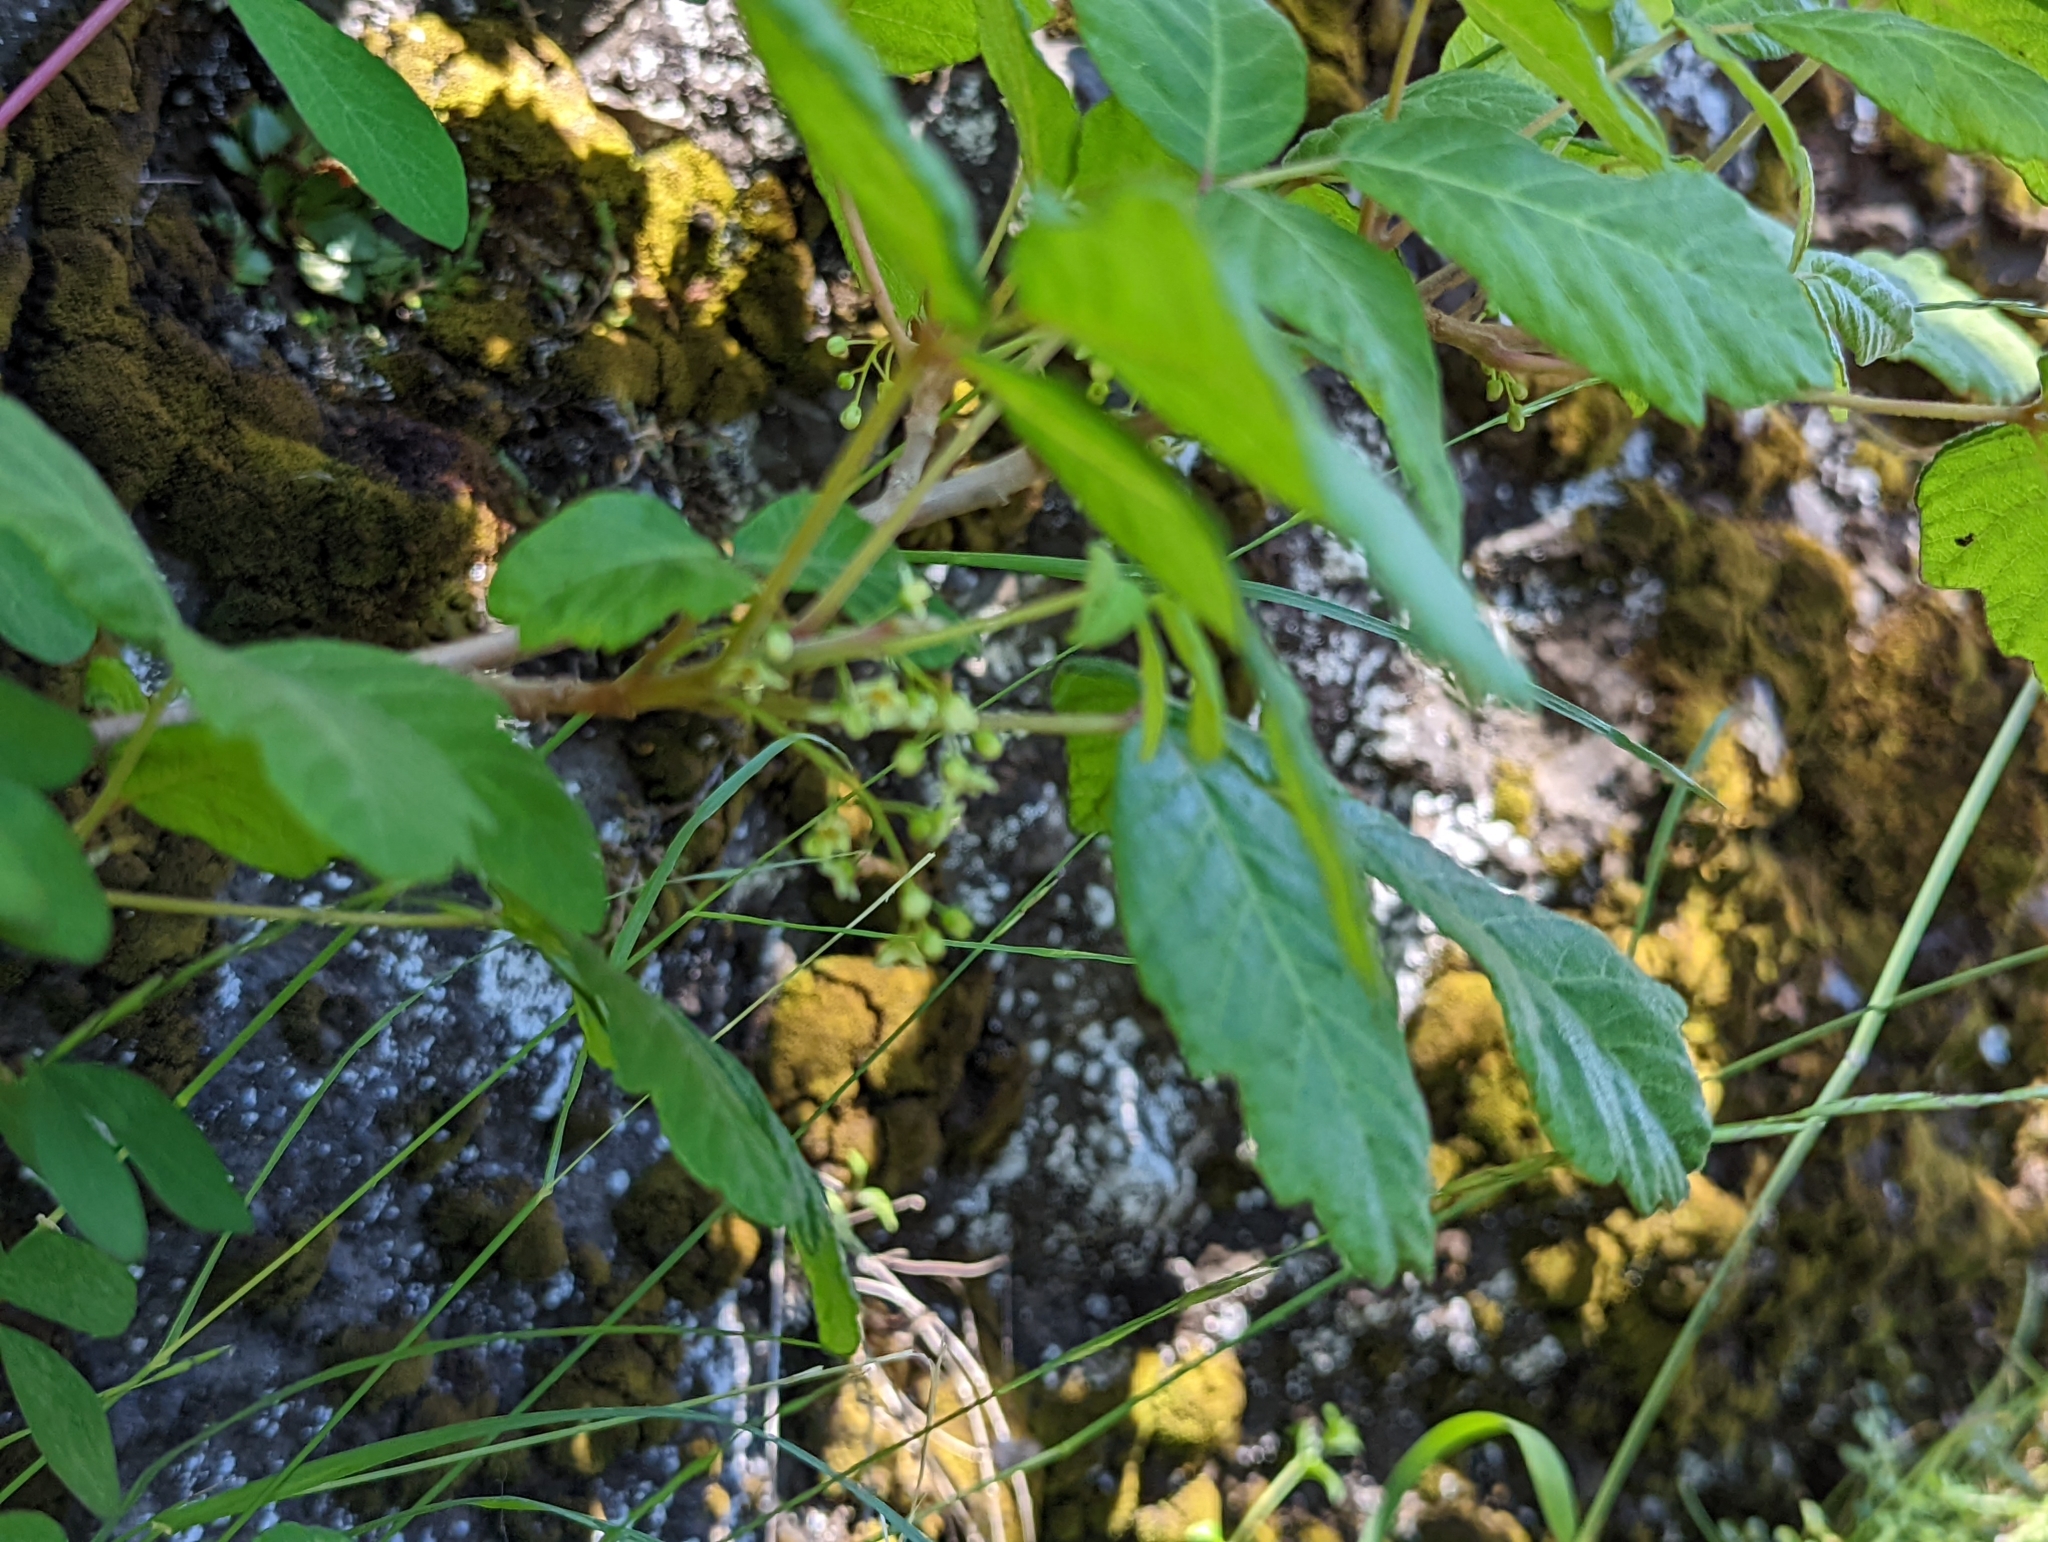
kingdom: Plantae
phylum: Tracheophyta
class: Magnoliopsida
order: Sapindales
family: Anacardiaceae
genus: Toxicodendron
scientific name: Toxicodendron diversilobum
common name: Pacific poison-oak
